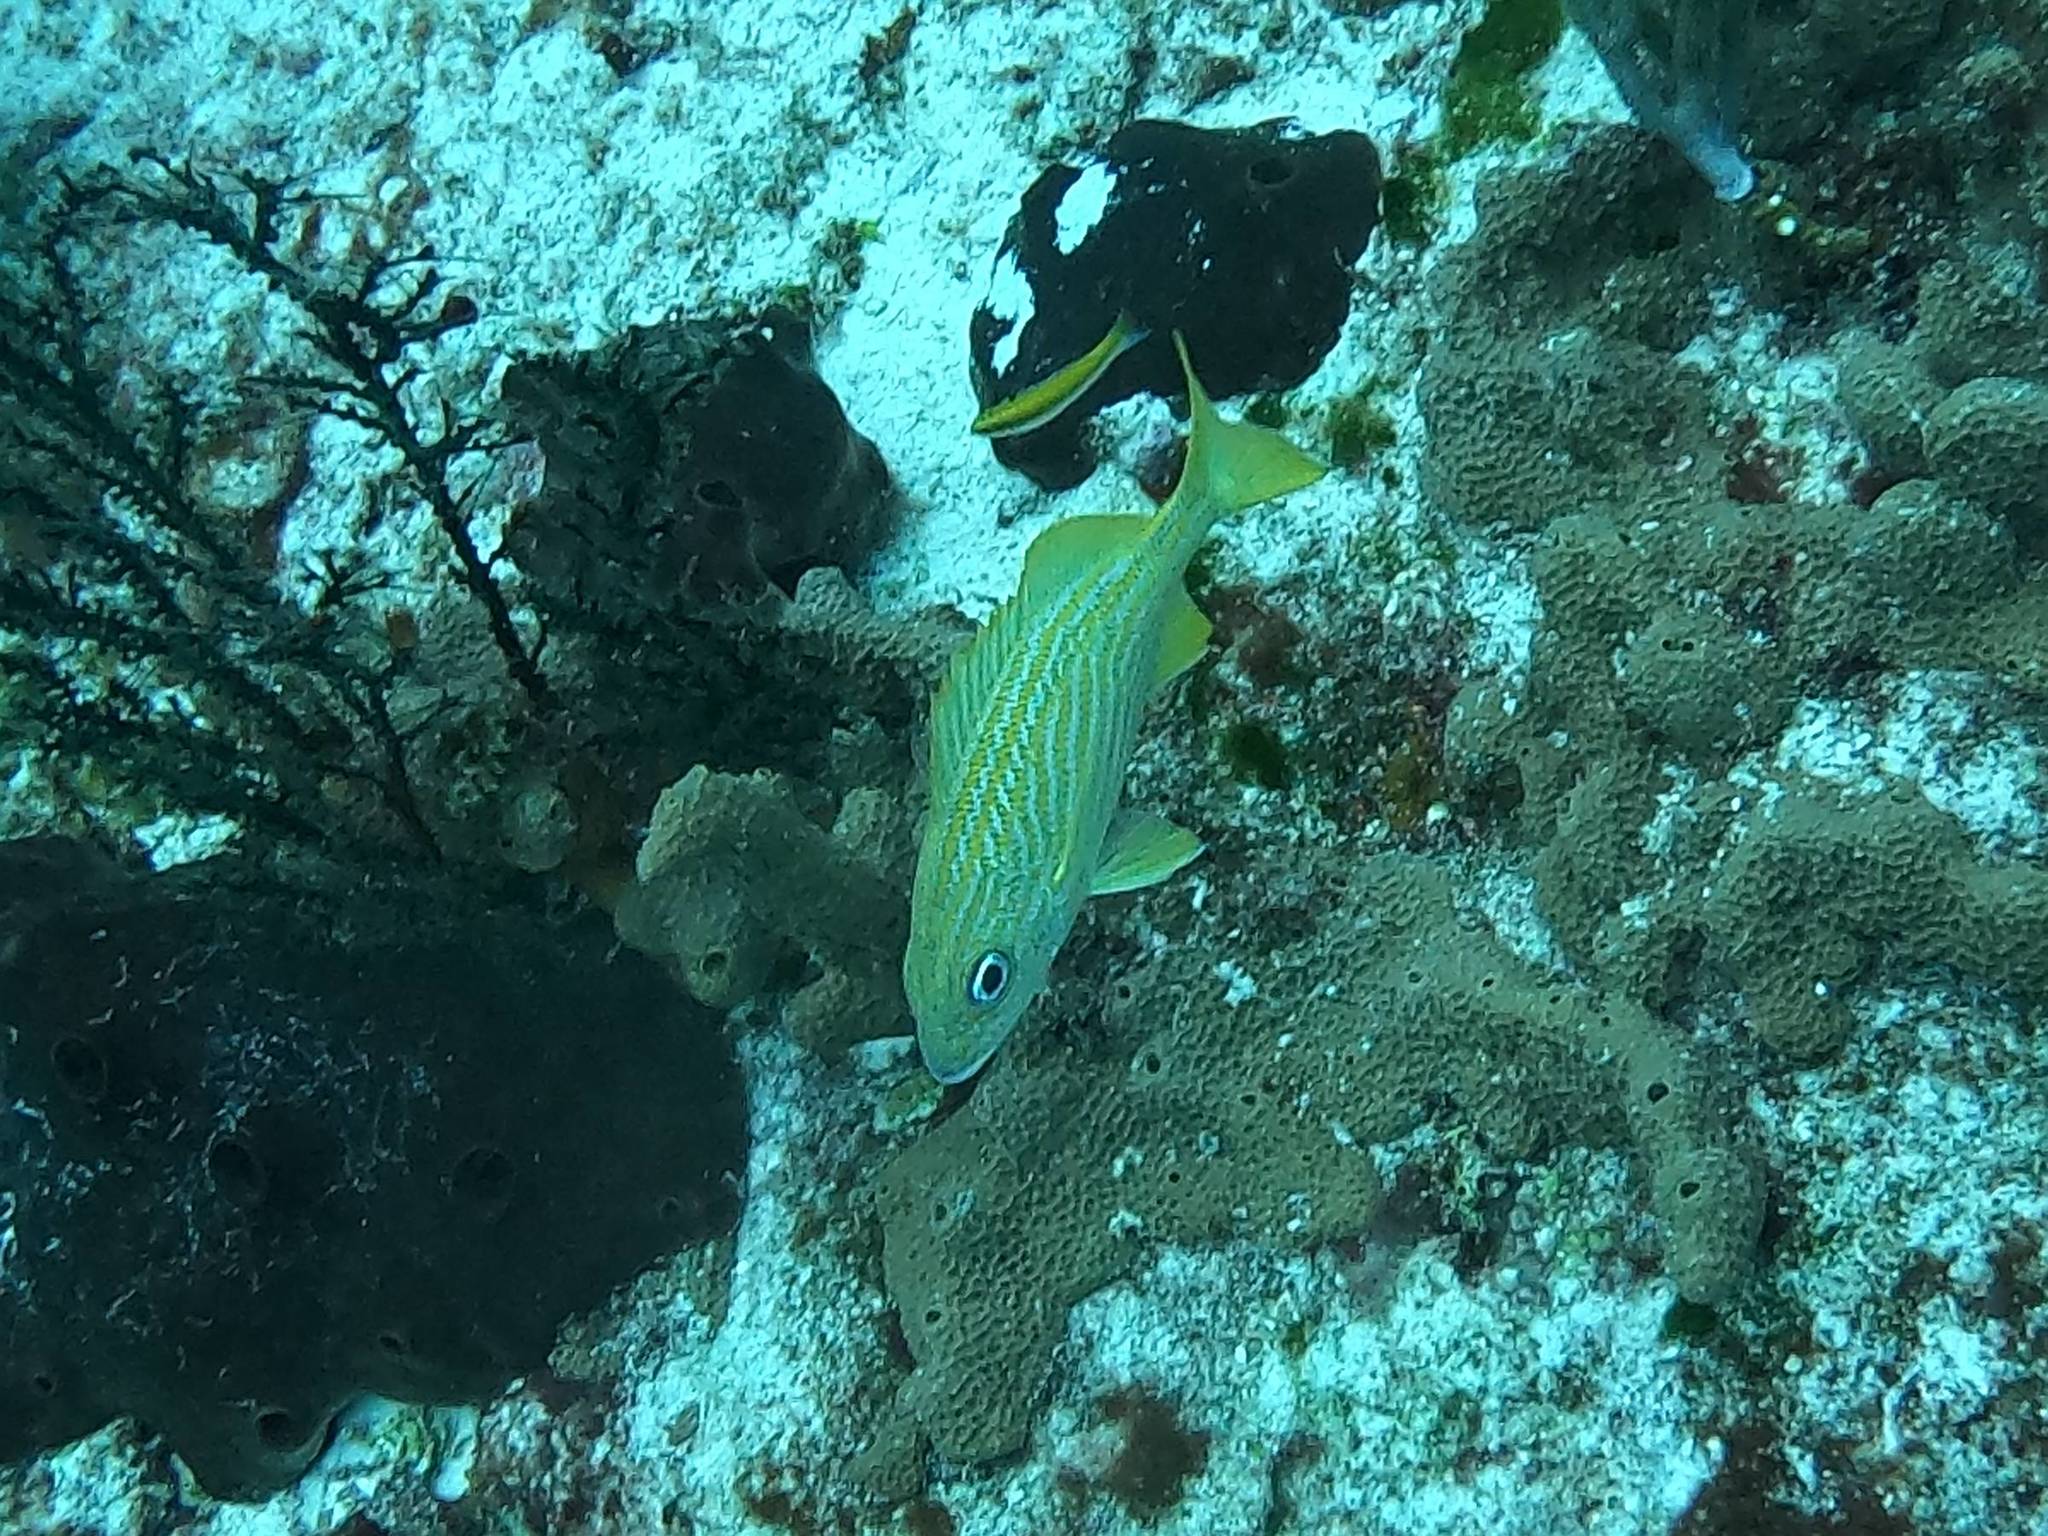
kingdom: Animalia
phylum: Chordata
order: Perciformes
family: Haemulidae
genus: Haemulon
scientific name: Haemulon flavolineatum
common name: French grunt
